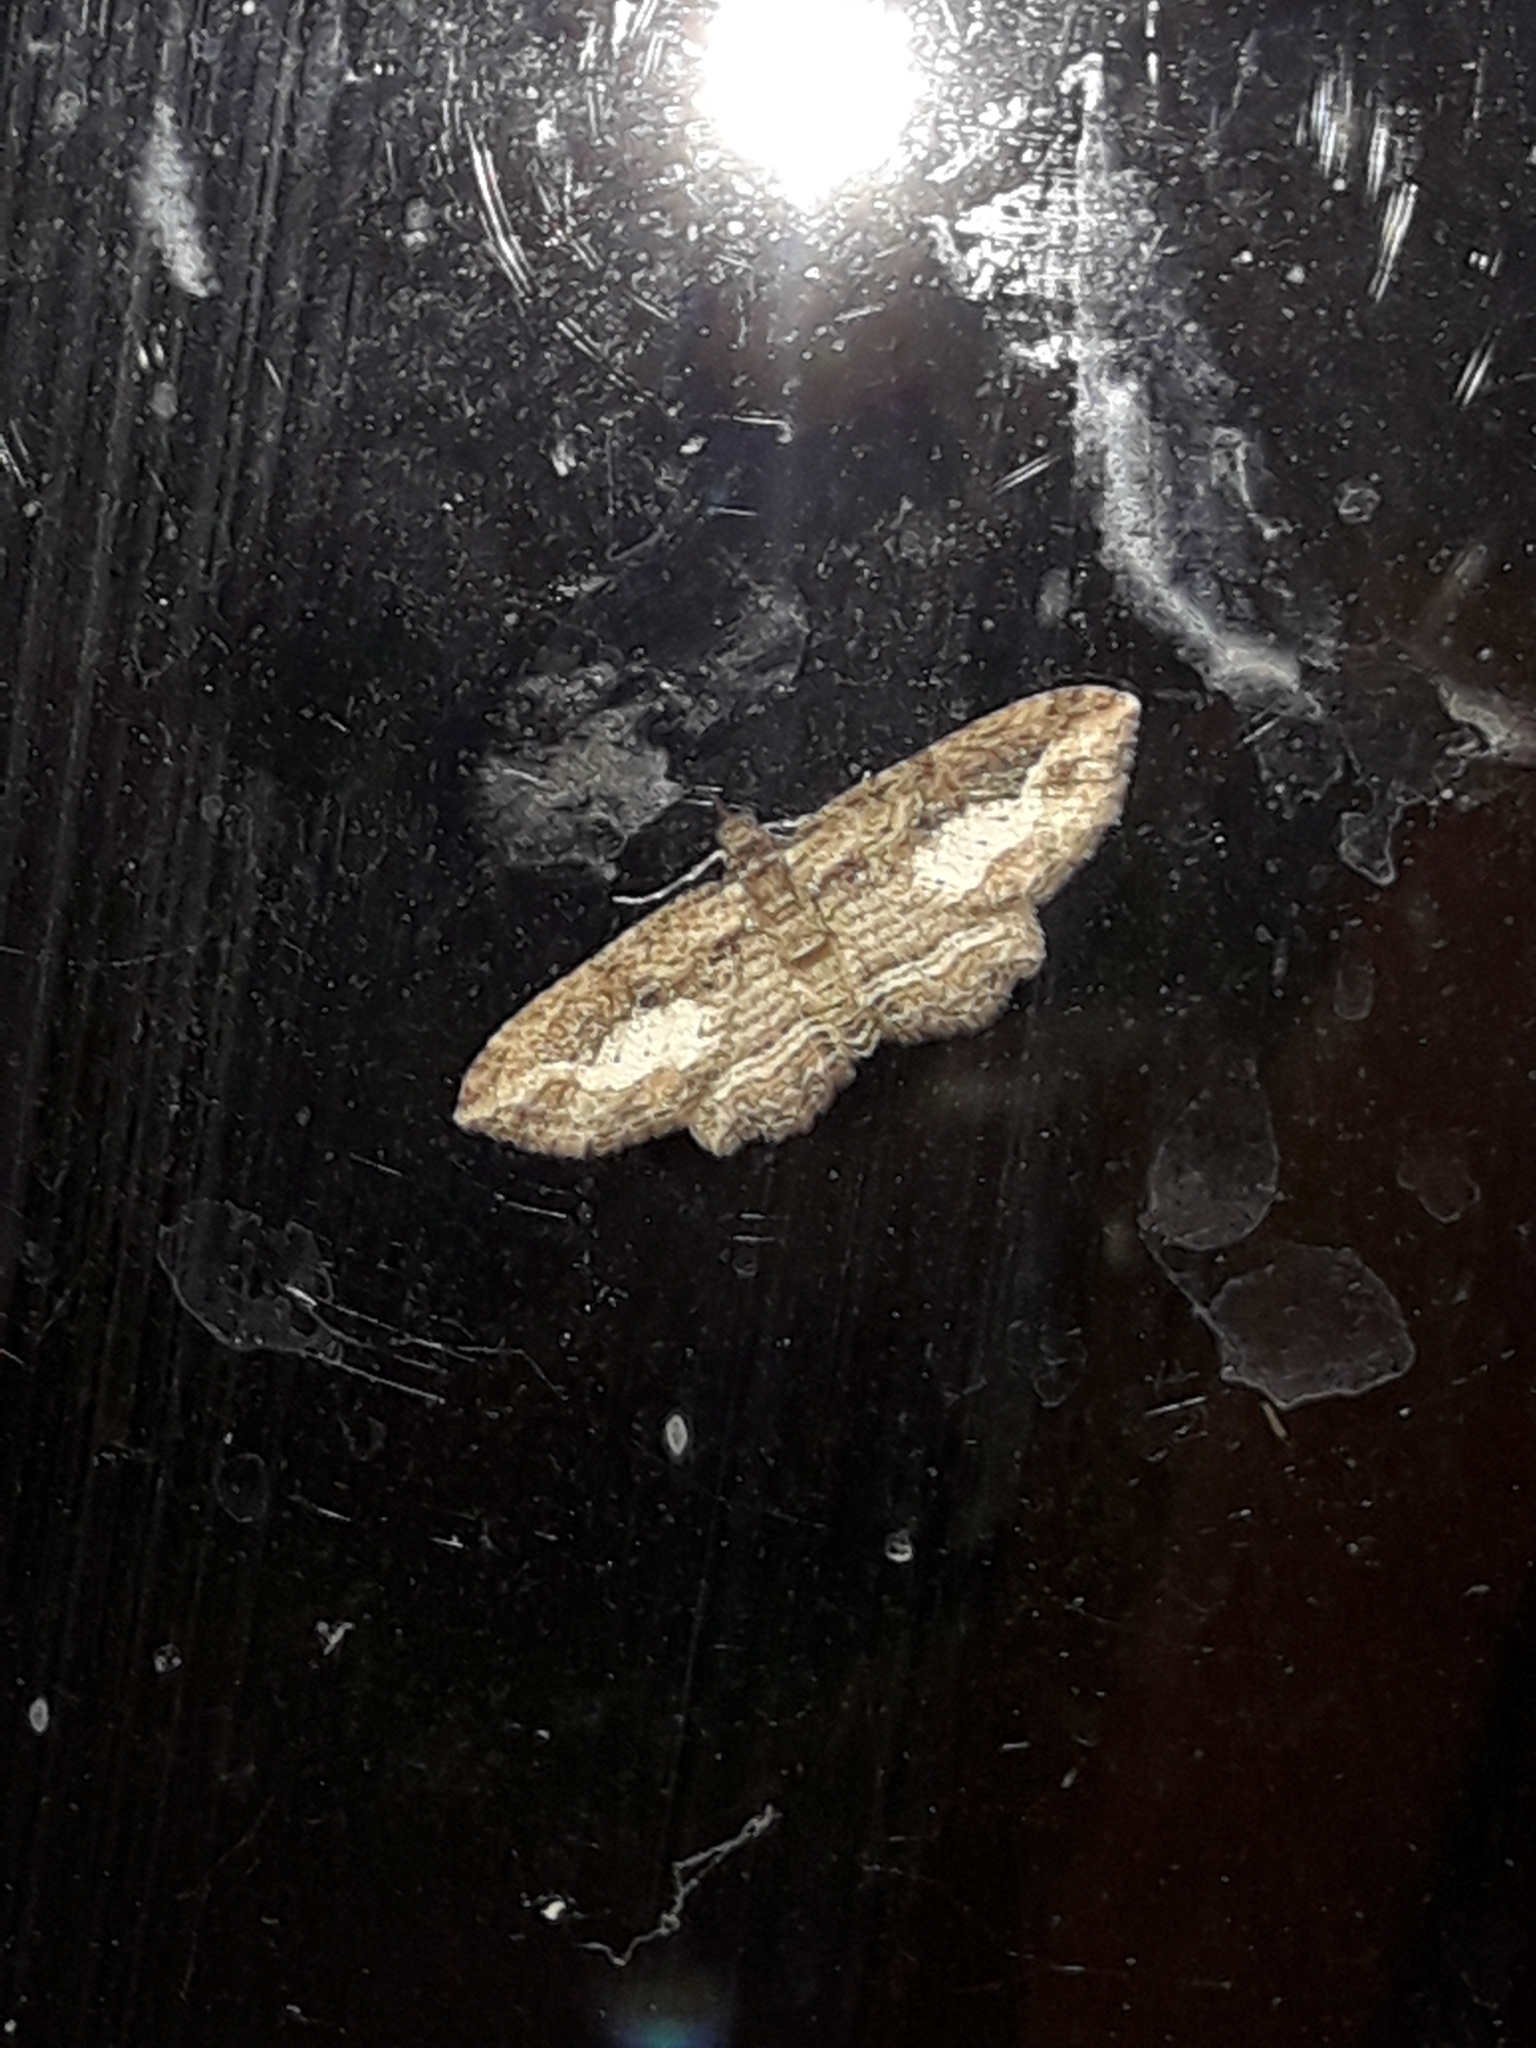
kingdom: Animalia
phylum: Arthropoda
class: Insecta
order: Lepidoptera
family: Geometridae
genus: Chloroclystis
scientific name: Chloroclystis filata
